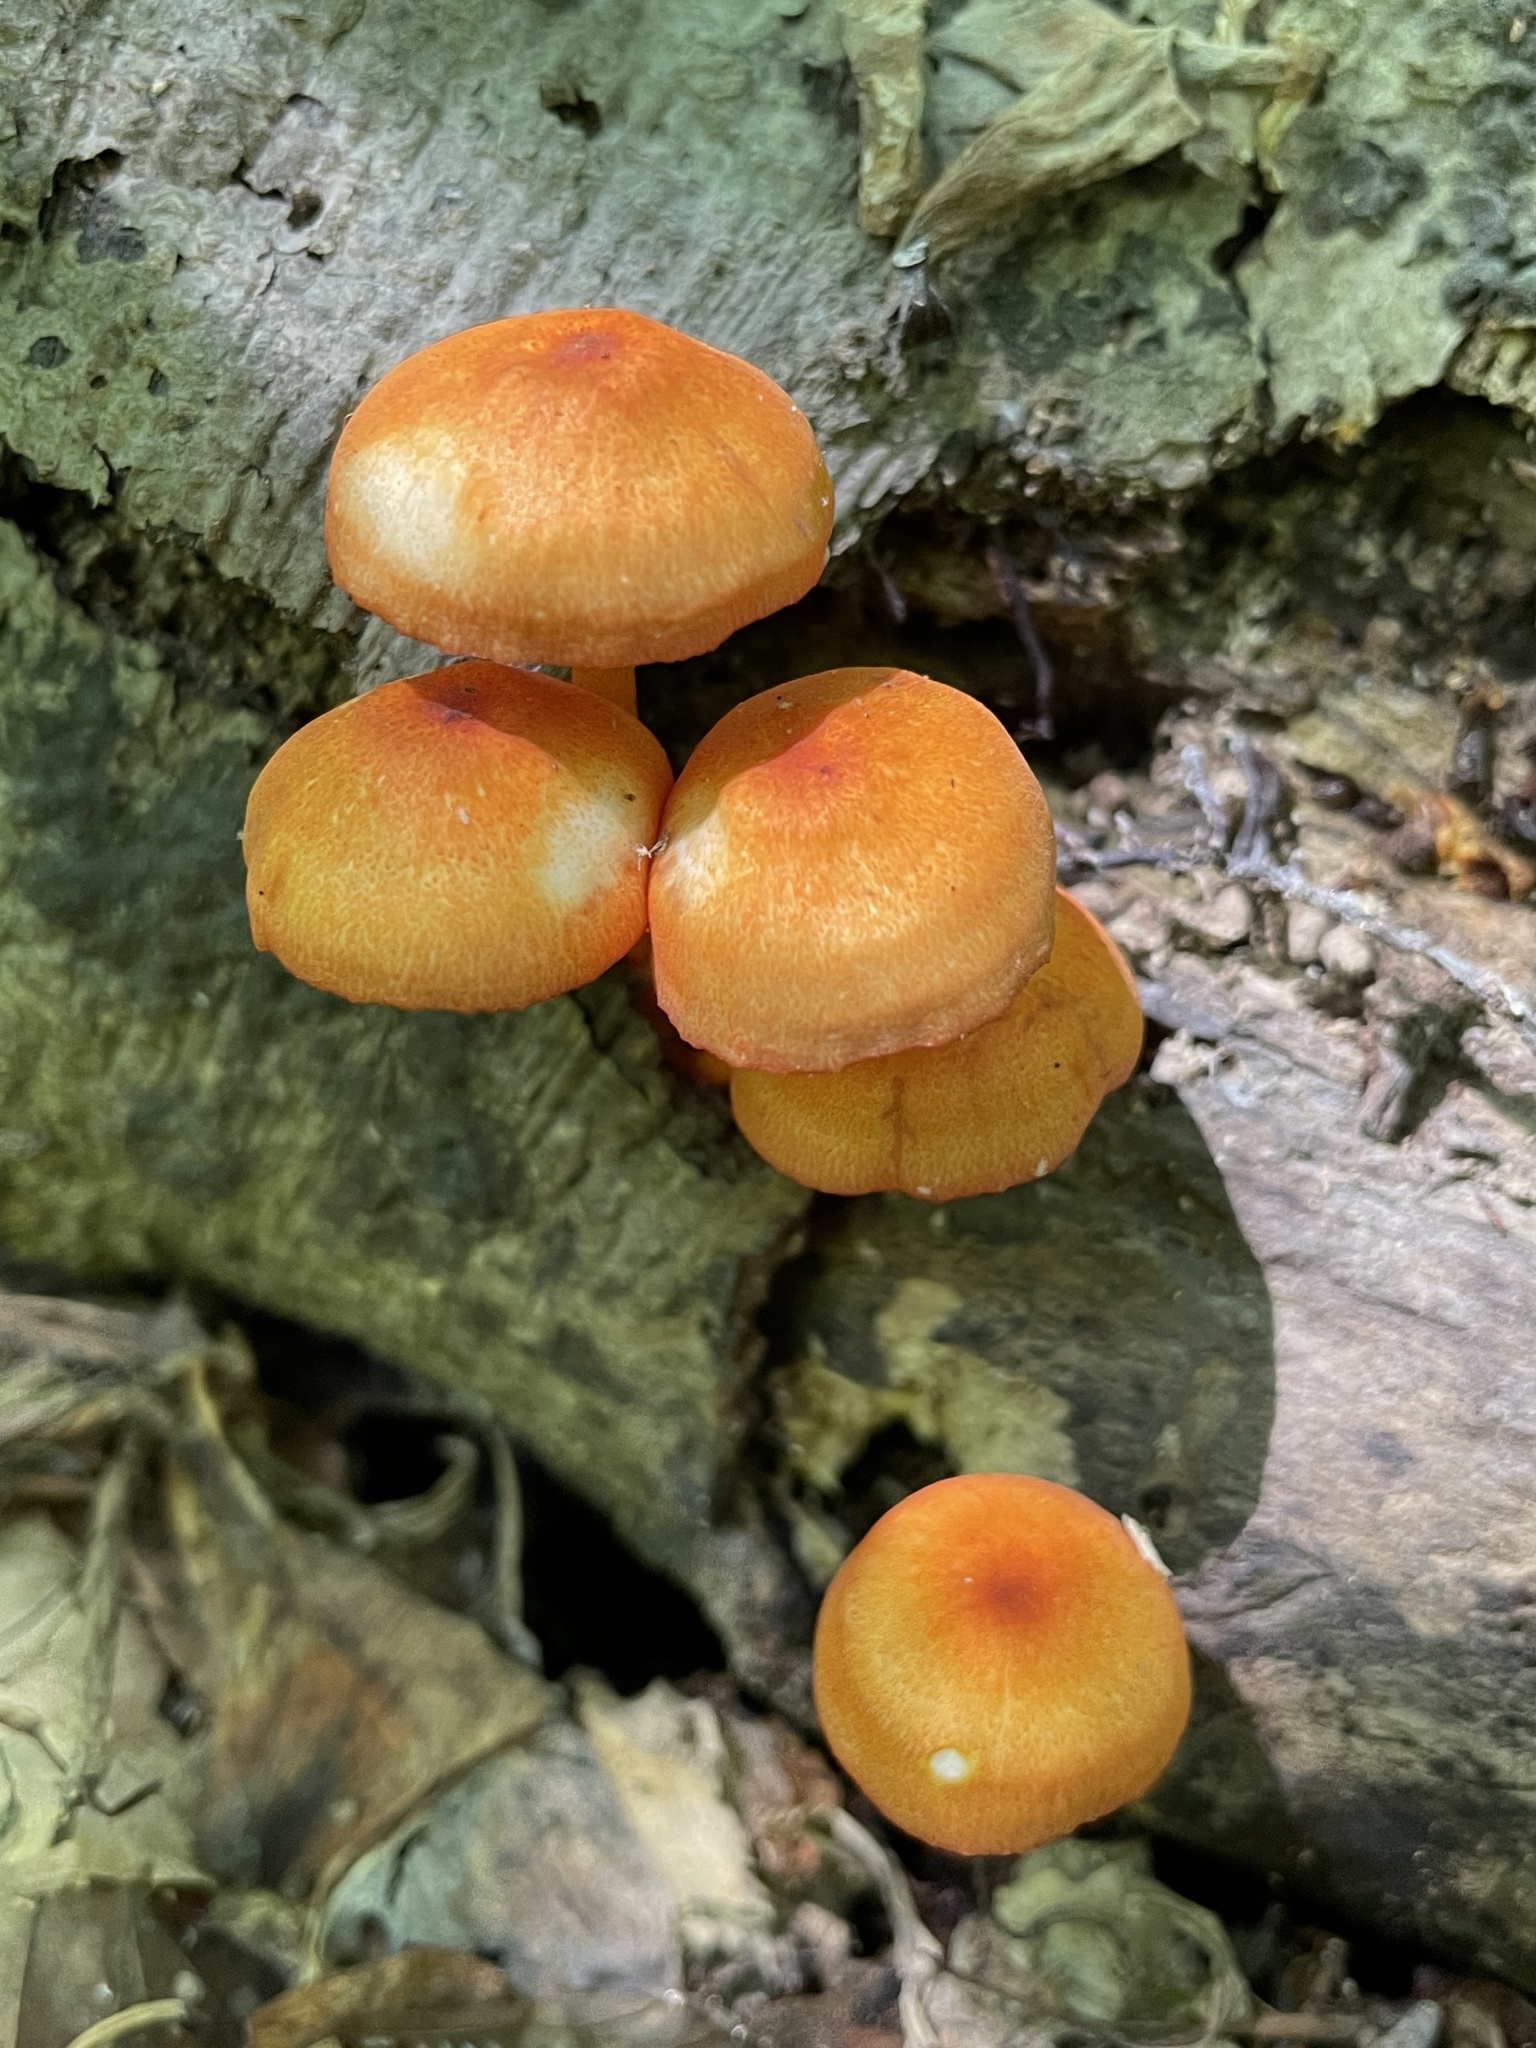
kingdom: Fungi
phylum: Basidiomycota
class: Agaricomycetes
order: Agaricales
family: Mycenaceae
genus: Mycena
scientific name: Mycena leaiana
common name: Orange mycena
